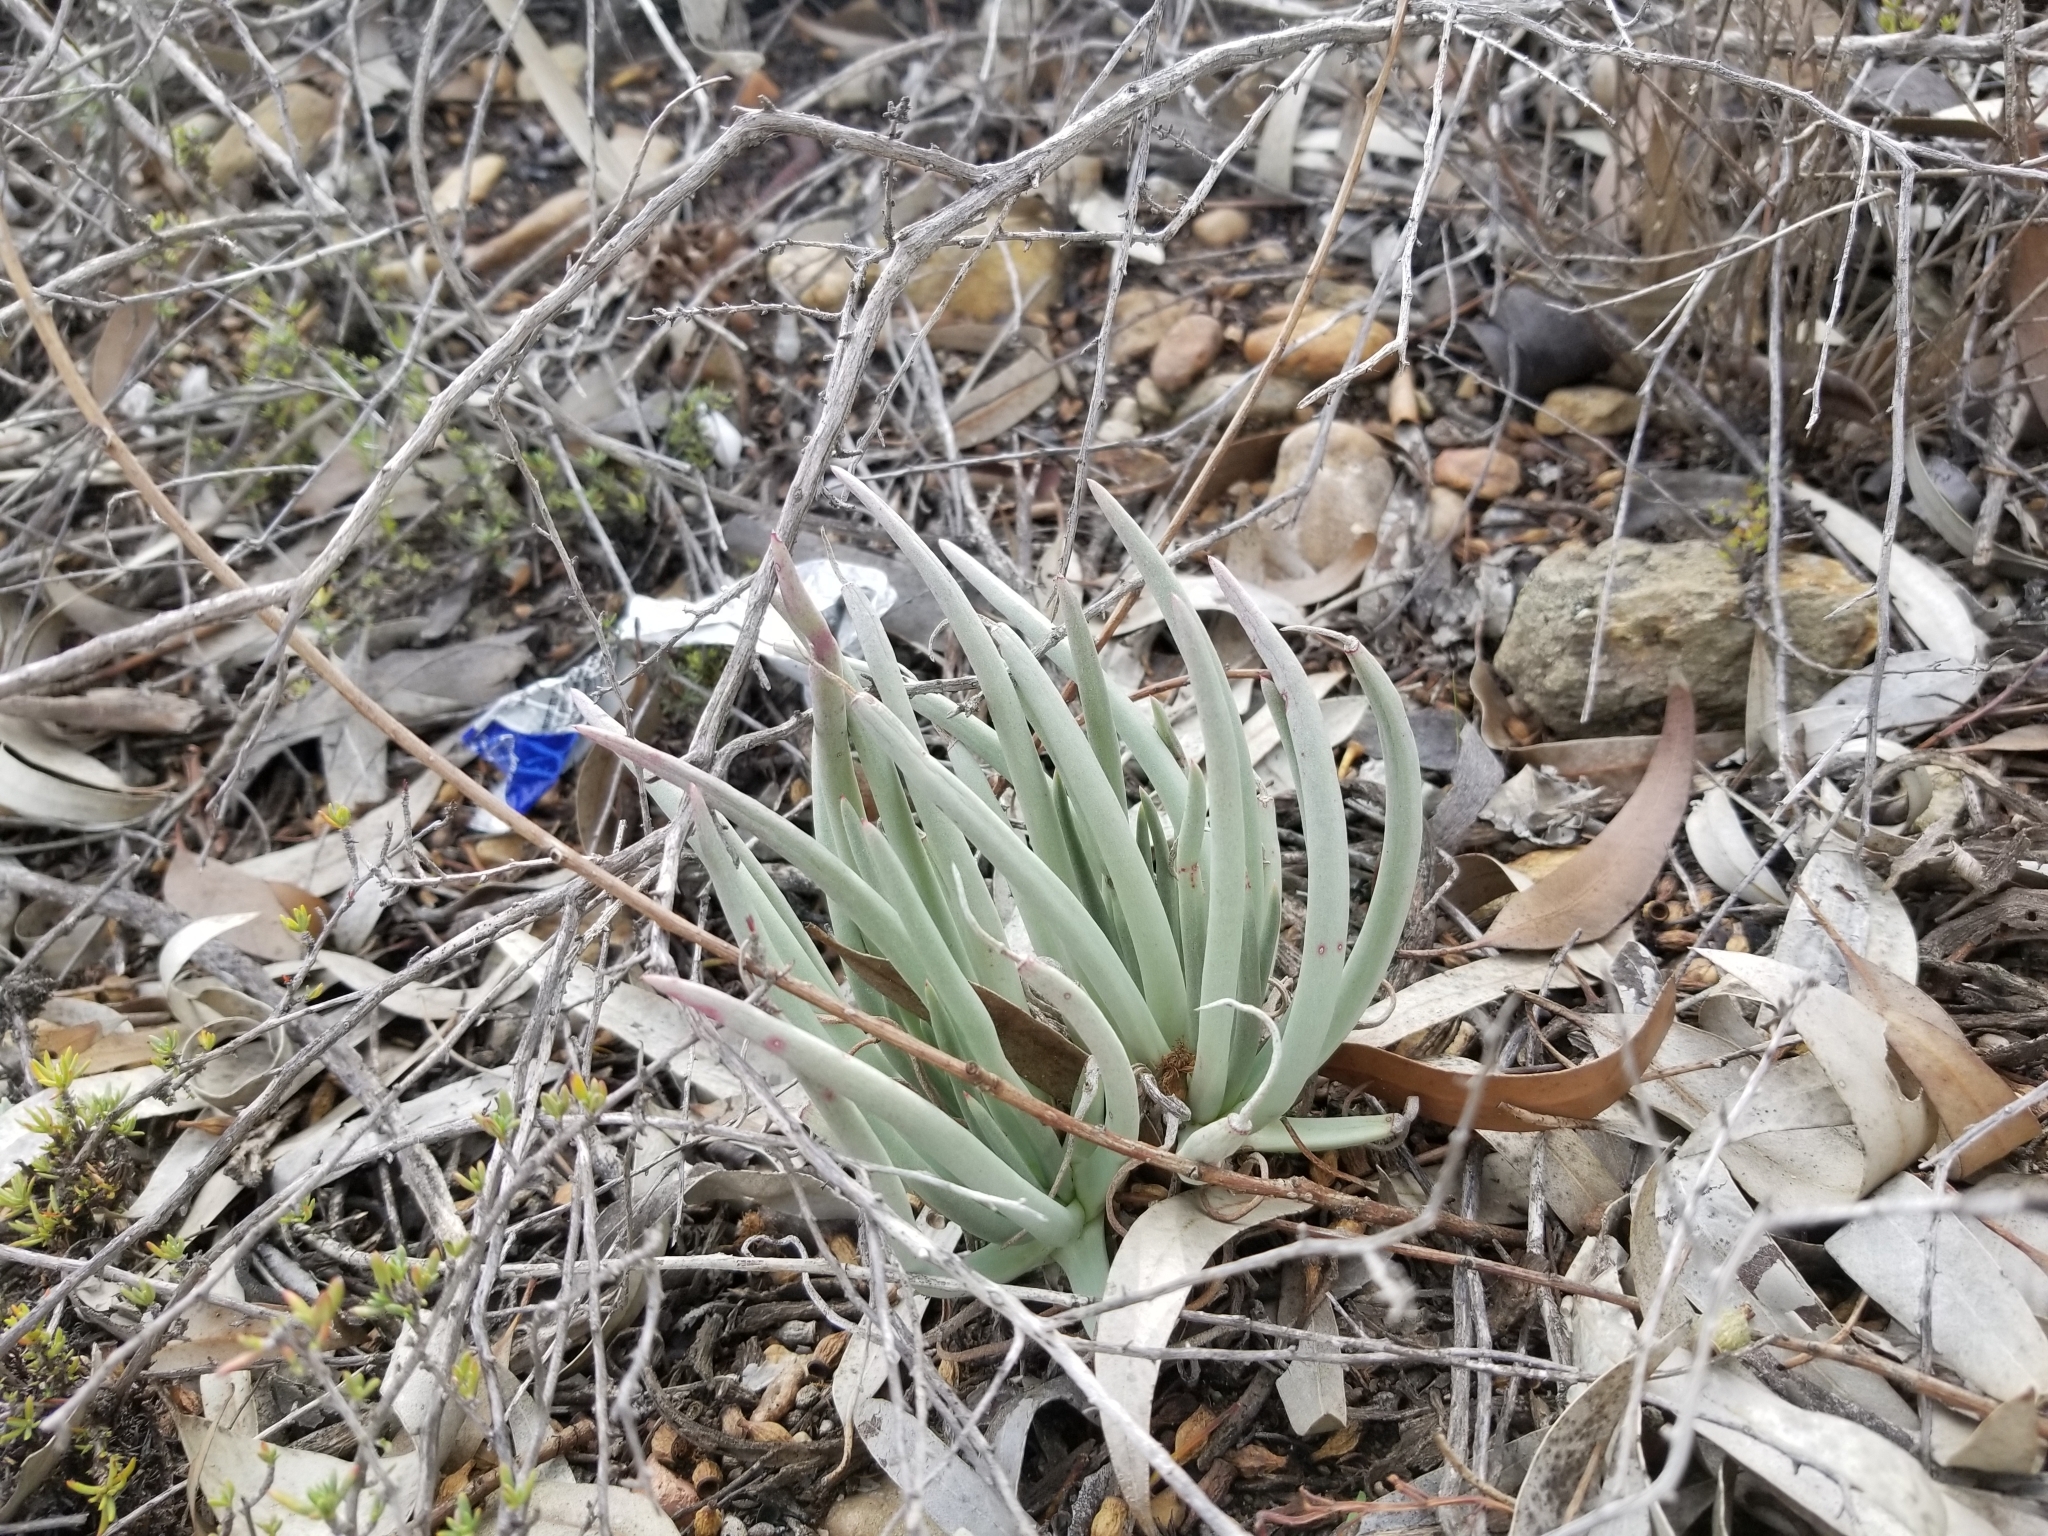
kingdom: Plantae
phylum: Tracheophyta
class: Magnoliopsida
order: Saxifragales
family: Crassulaceae
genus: Dudleya
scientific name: Dudleya edulis
